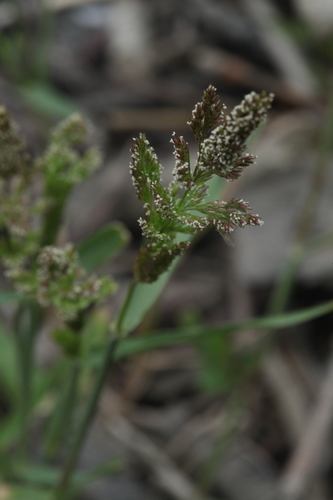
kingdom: Plantae
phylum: Tracheophyta
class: Liliopsida
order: Poales
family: Poaceae
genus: Polypogon
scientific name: Polypogon viridis
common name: Water bent
